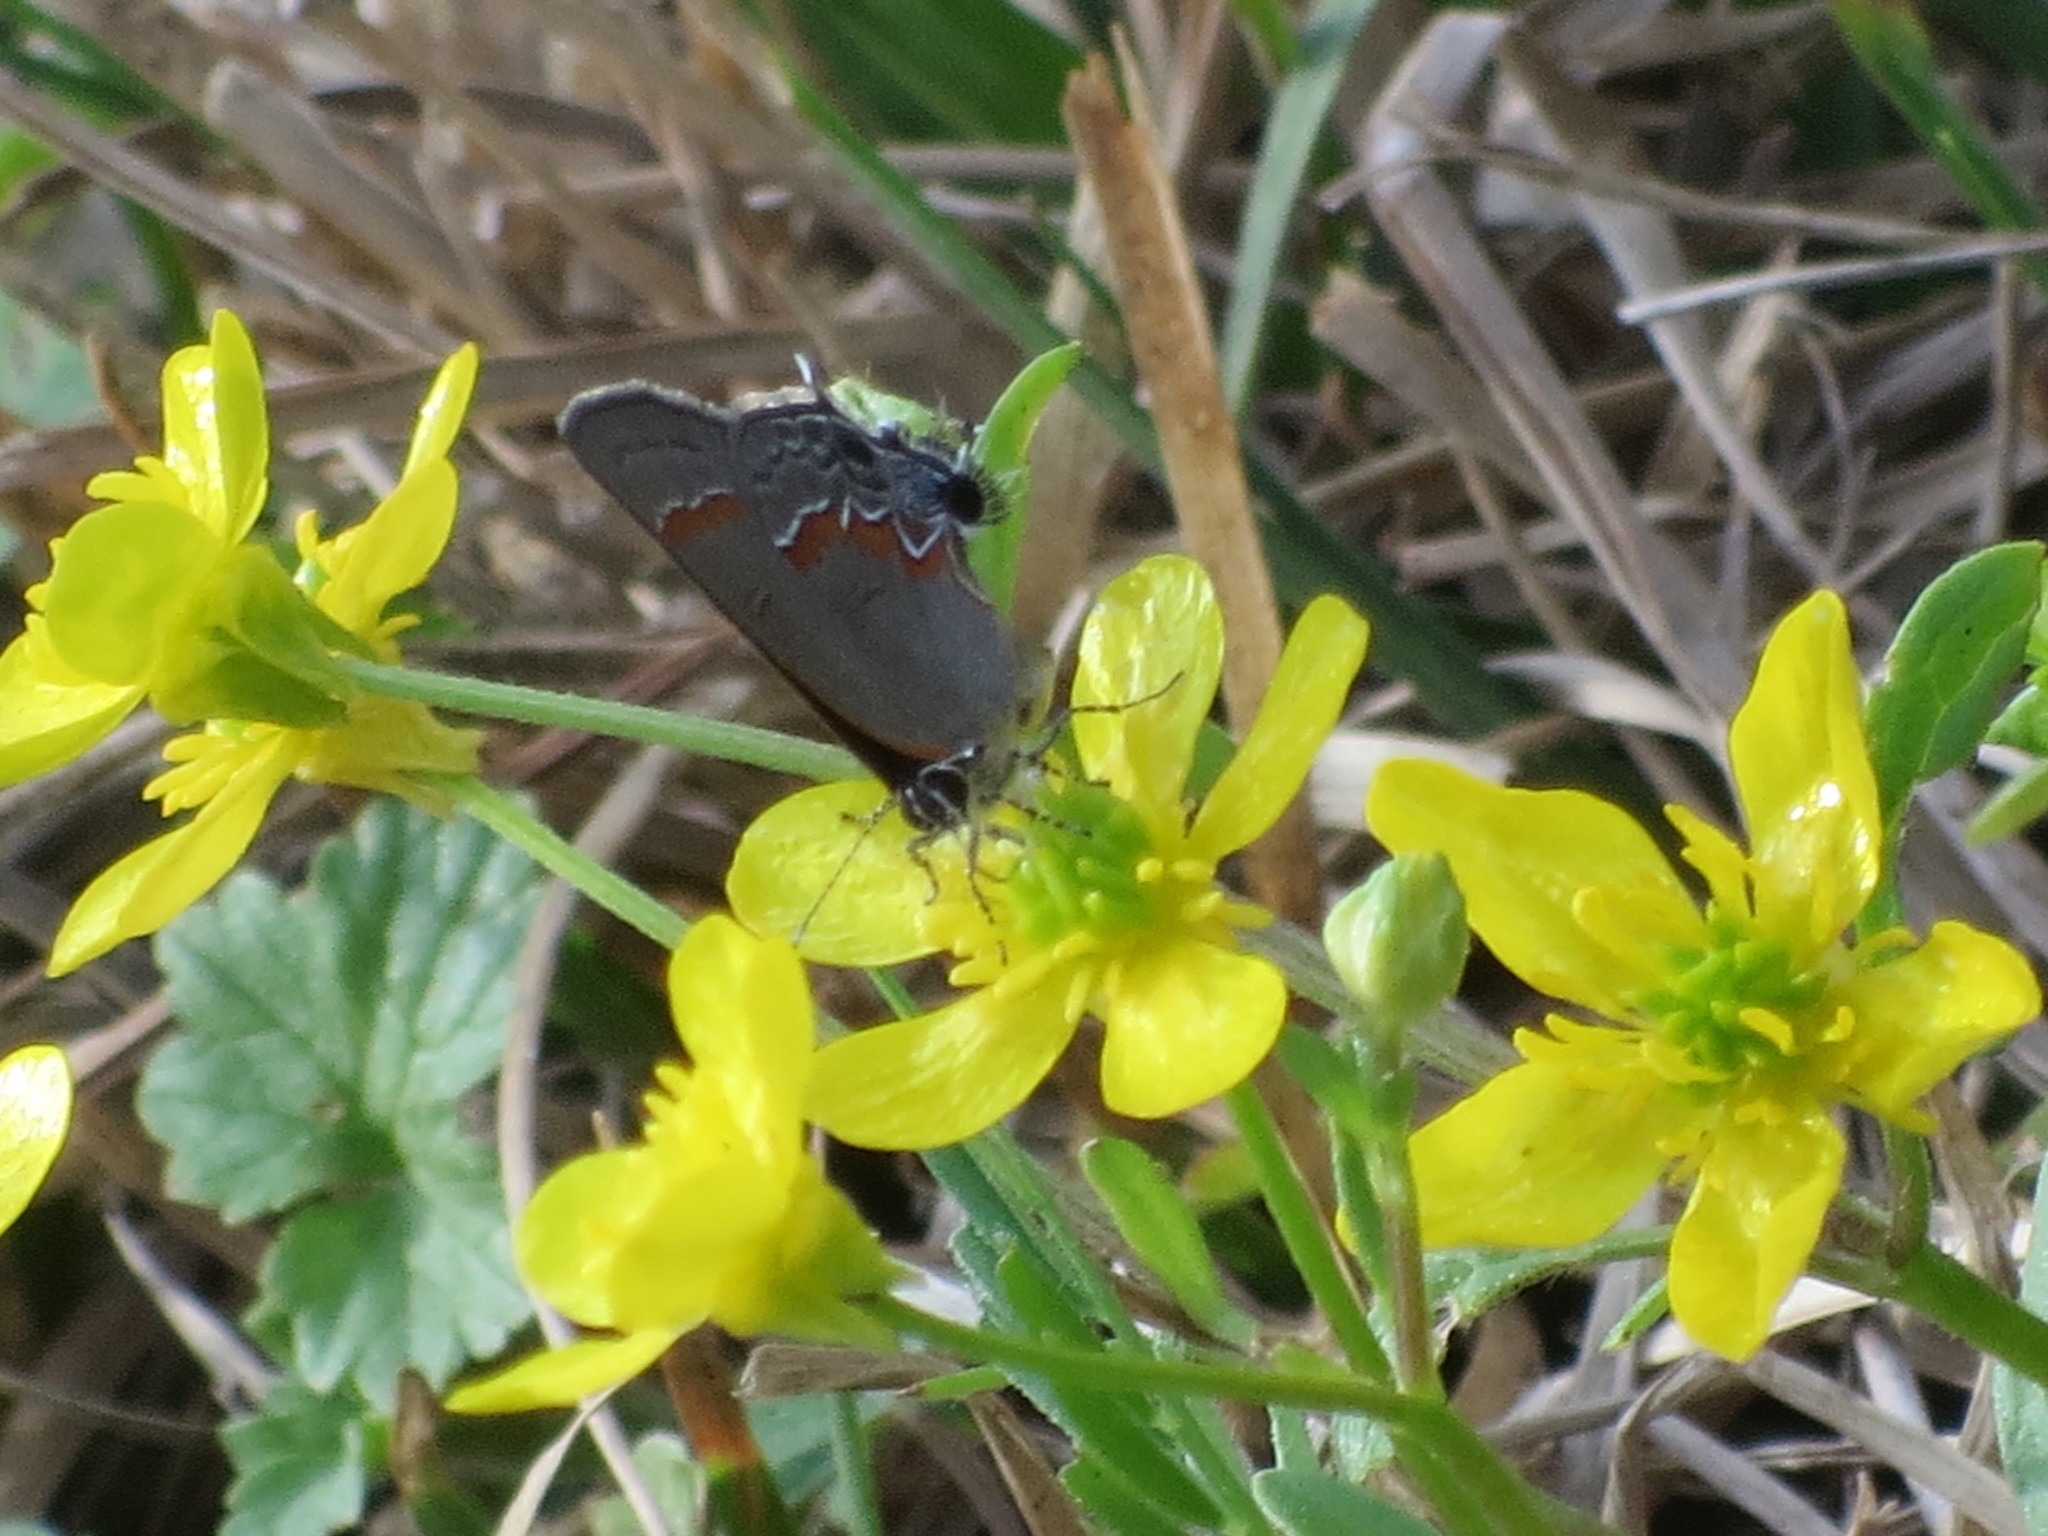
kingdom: Animalia
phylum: Arthropoda
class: Insecta
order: Lepidoptera
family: Lycaenidae
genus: Calycopis
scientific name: Calycopis cecrops
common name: Red-banded hairstreak
